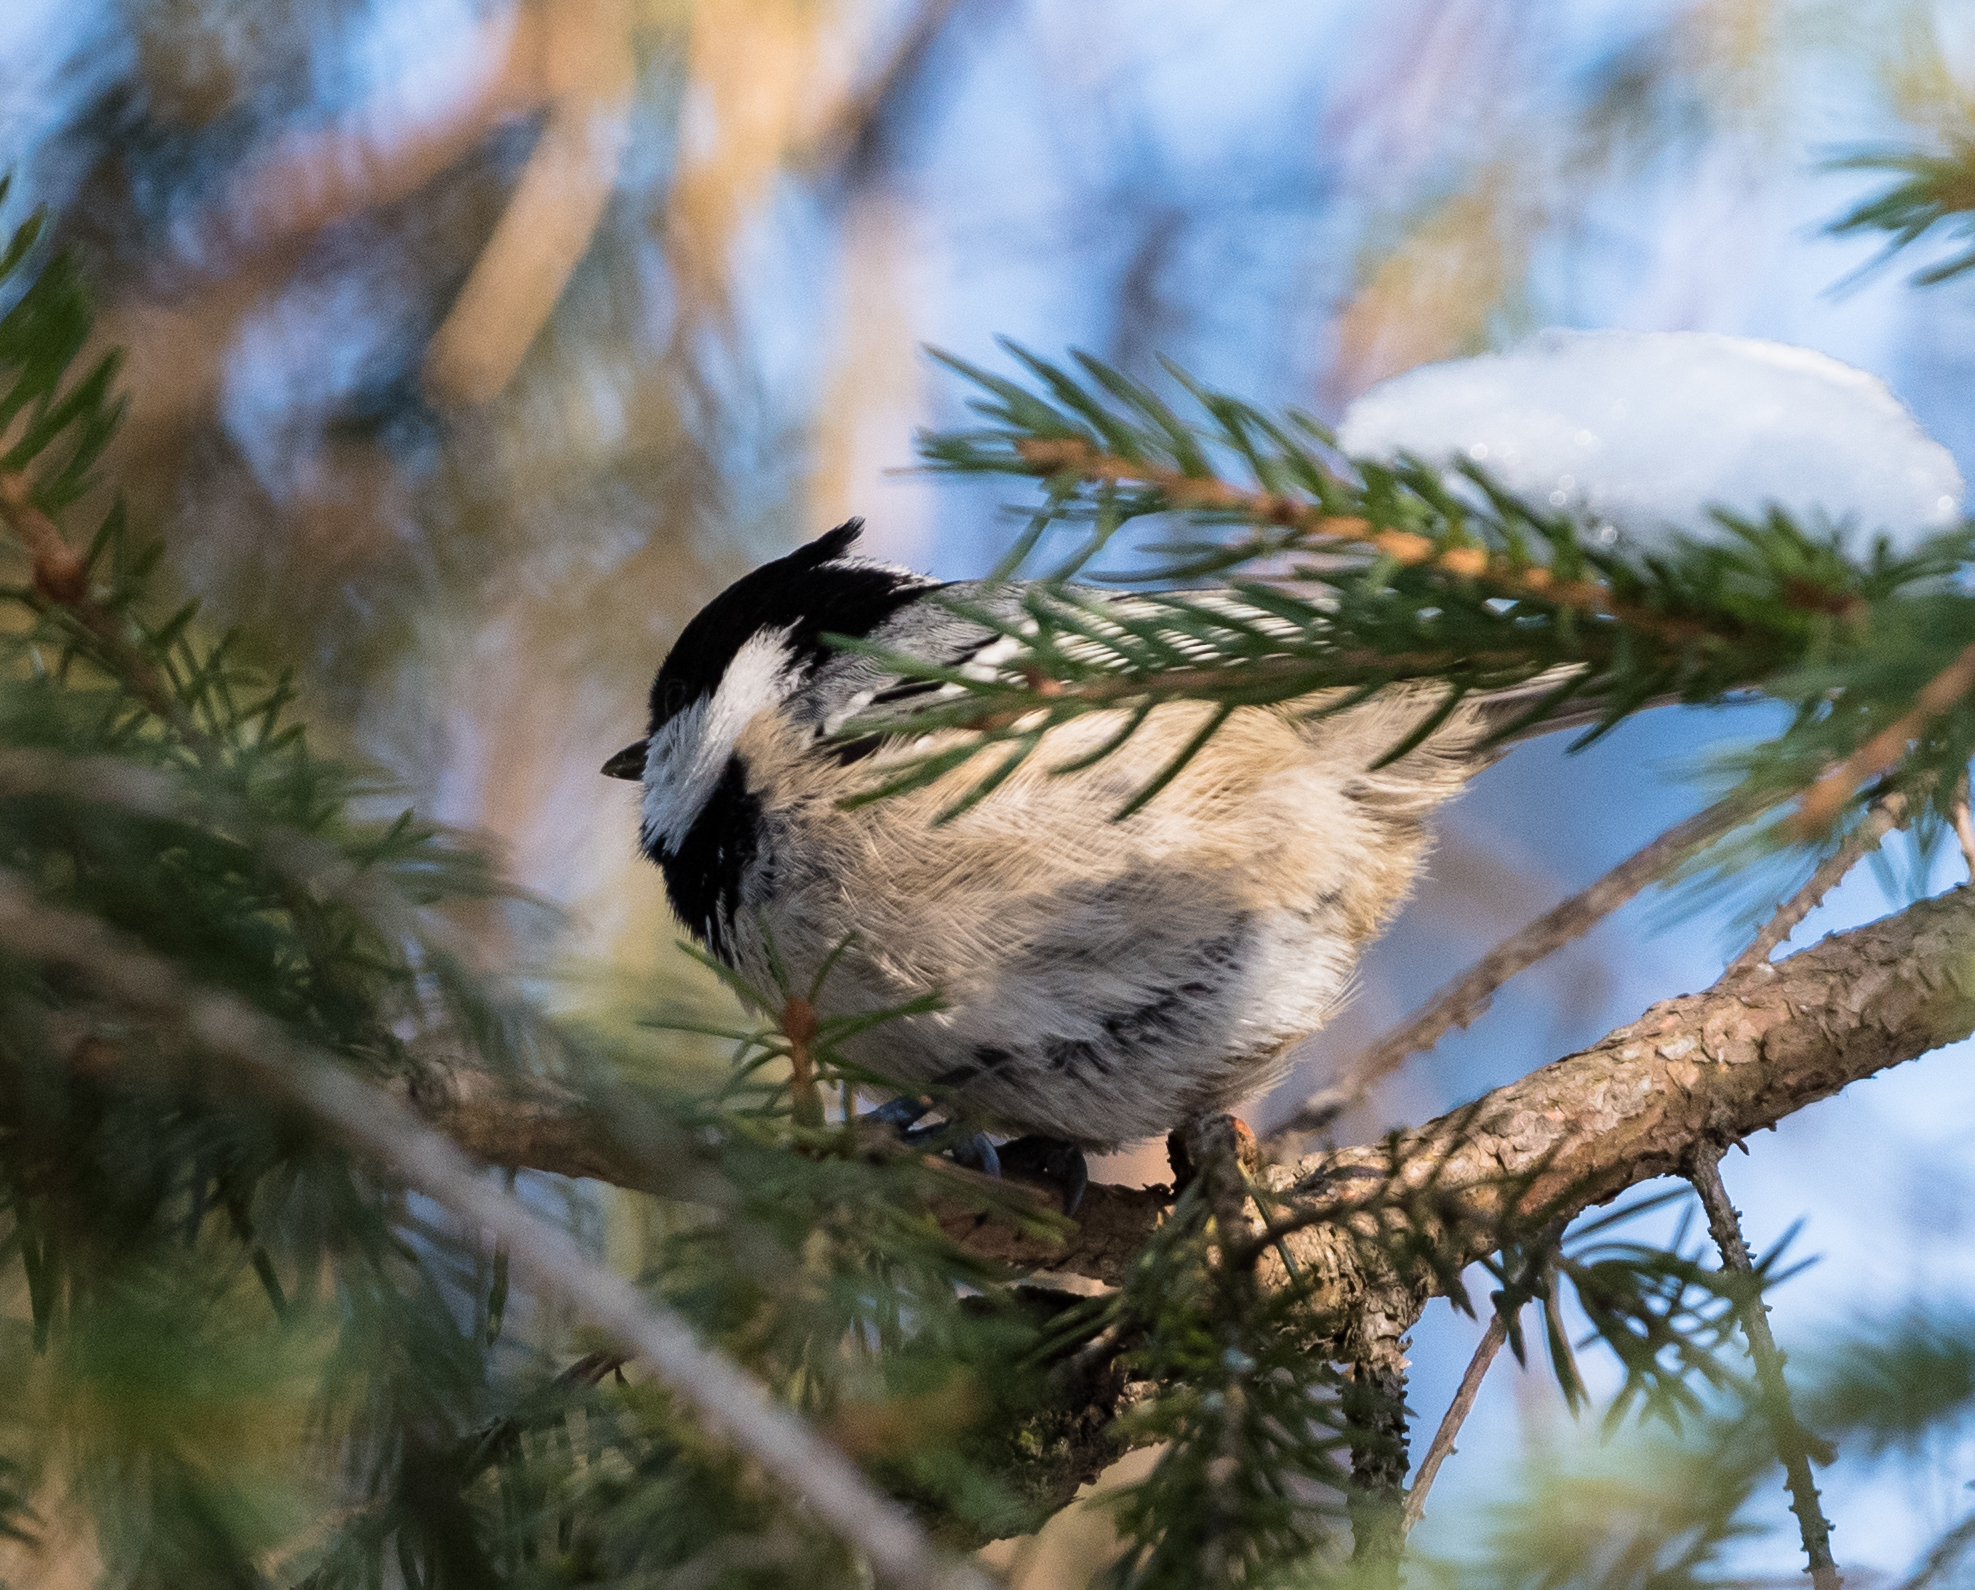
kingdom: Animalia
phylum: Chordata
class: Aves
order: Passeriformes
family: Paridae
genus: Periparus
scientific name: Periparus ater
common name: Coal tit
